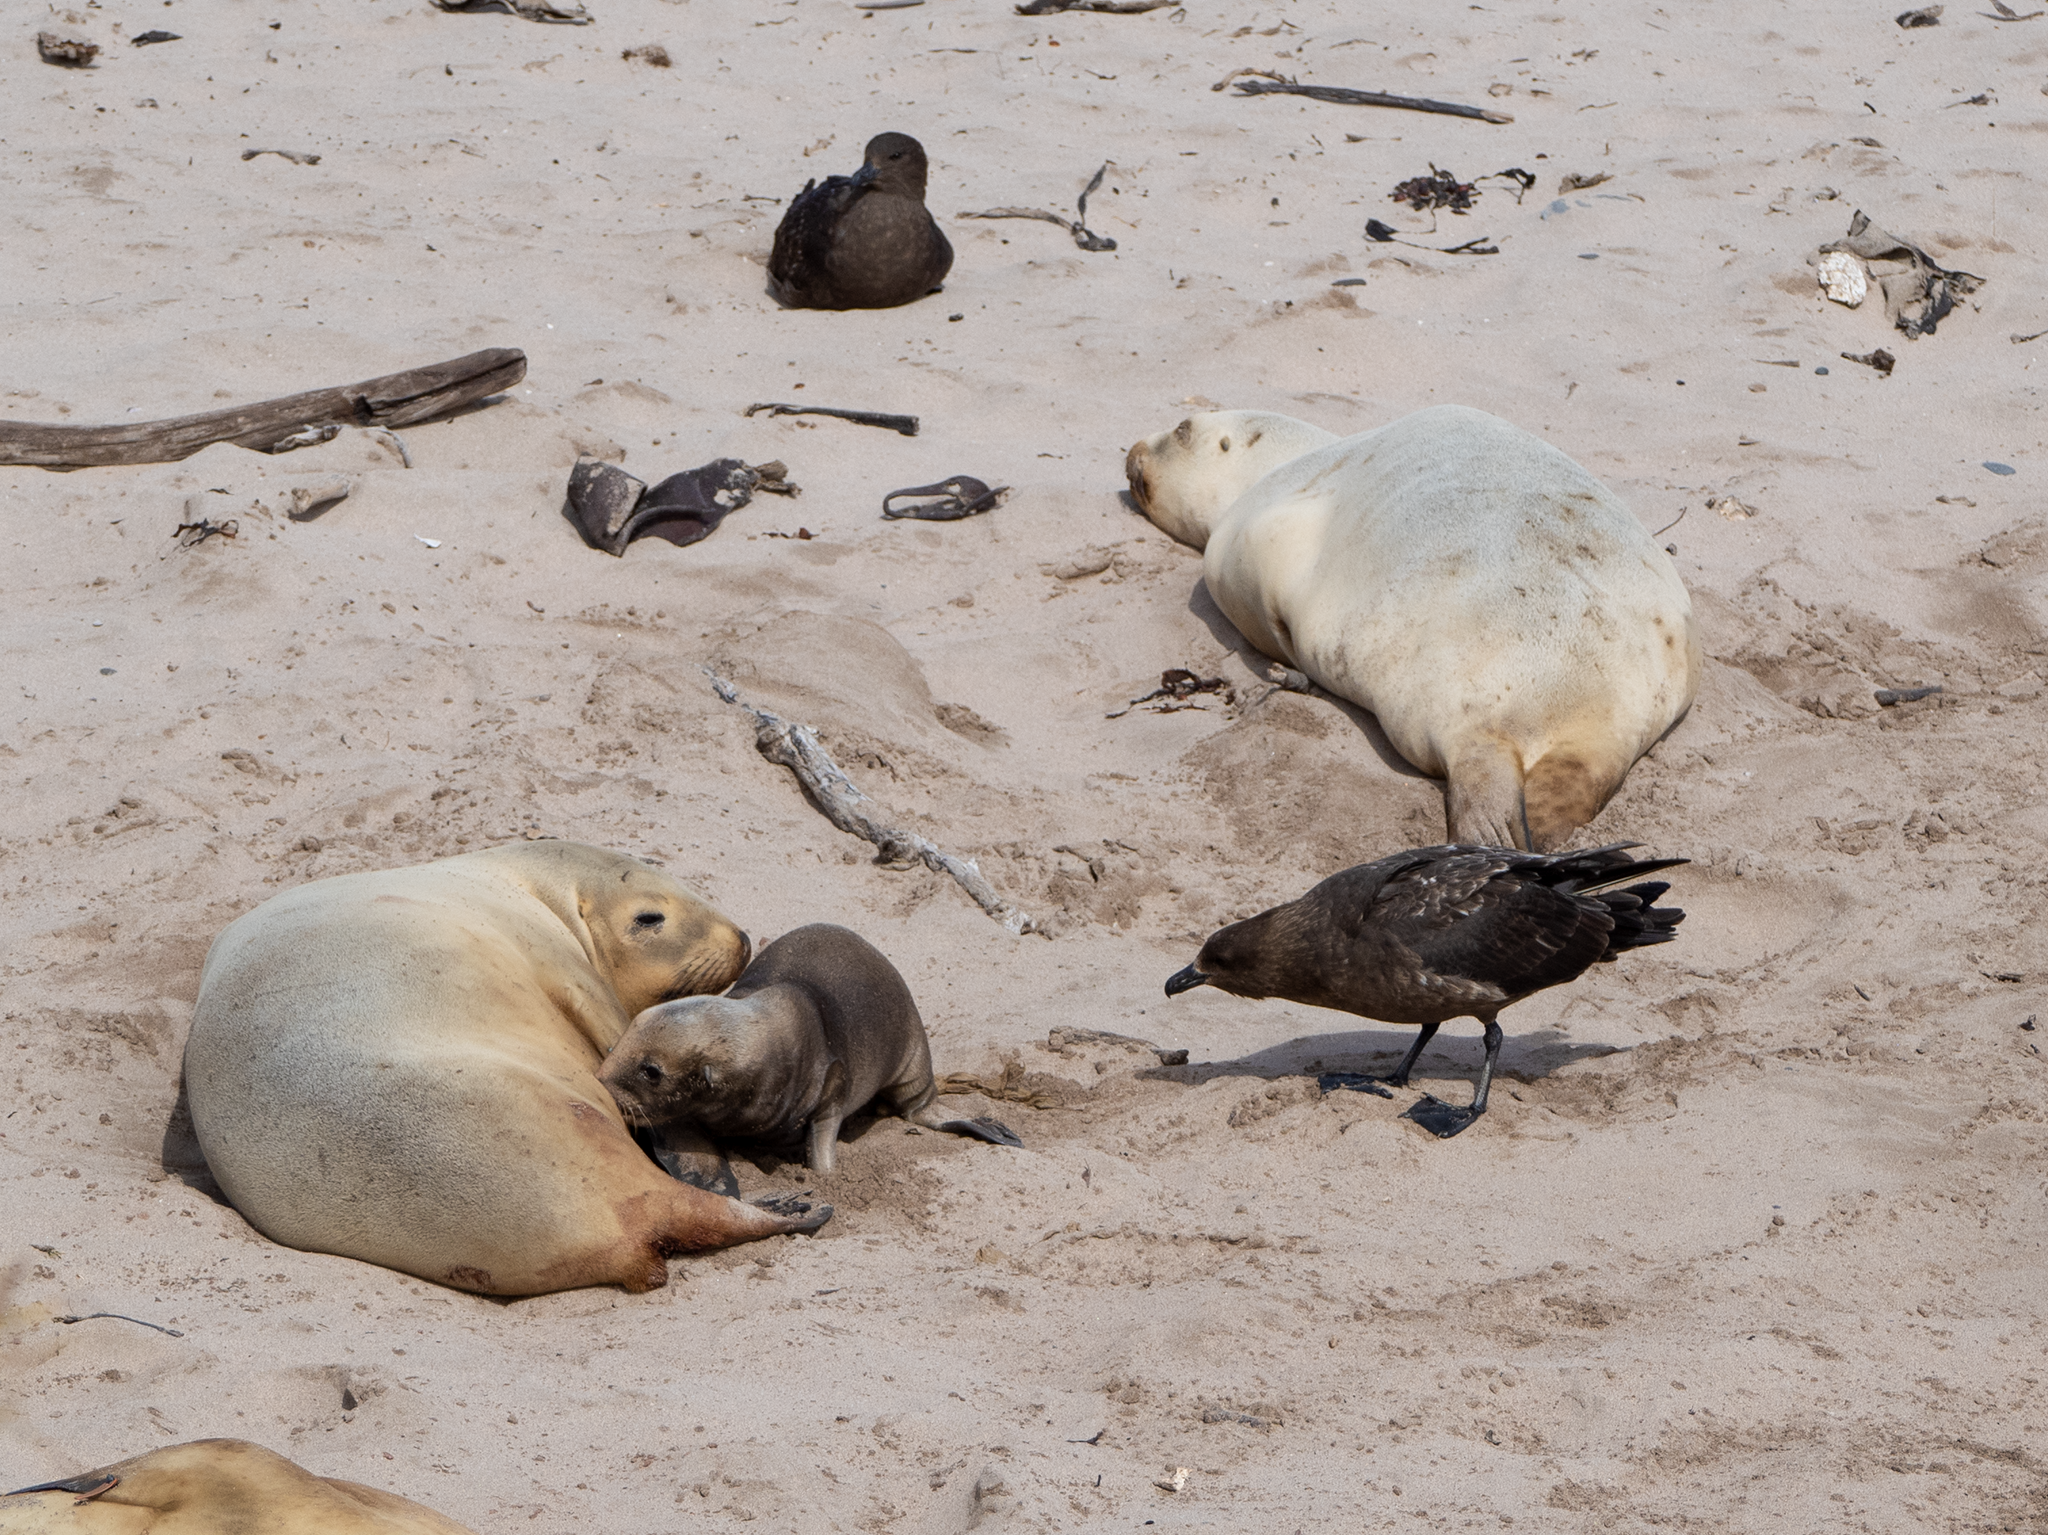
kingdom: Animalia
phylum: Chordata
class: Aves
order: Charadriiformes
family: Stercorariidae
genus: Stercorarius
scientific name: Stercorarius antarcticus
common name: Brown skua
